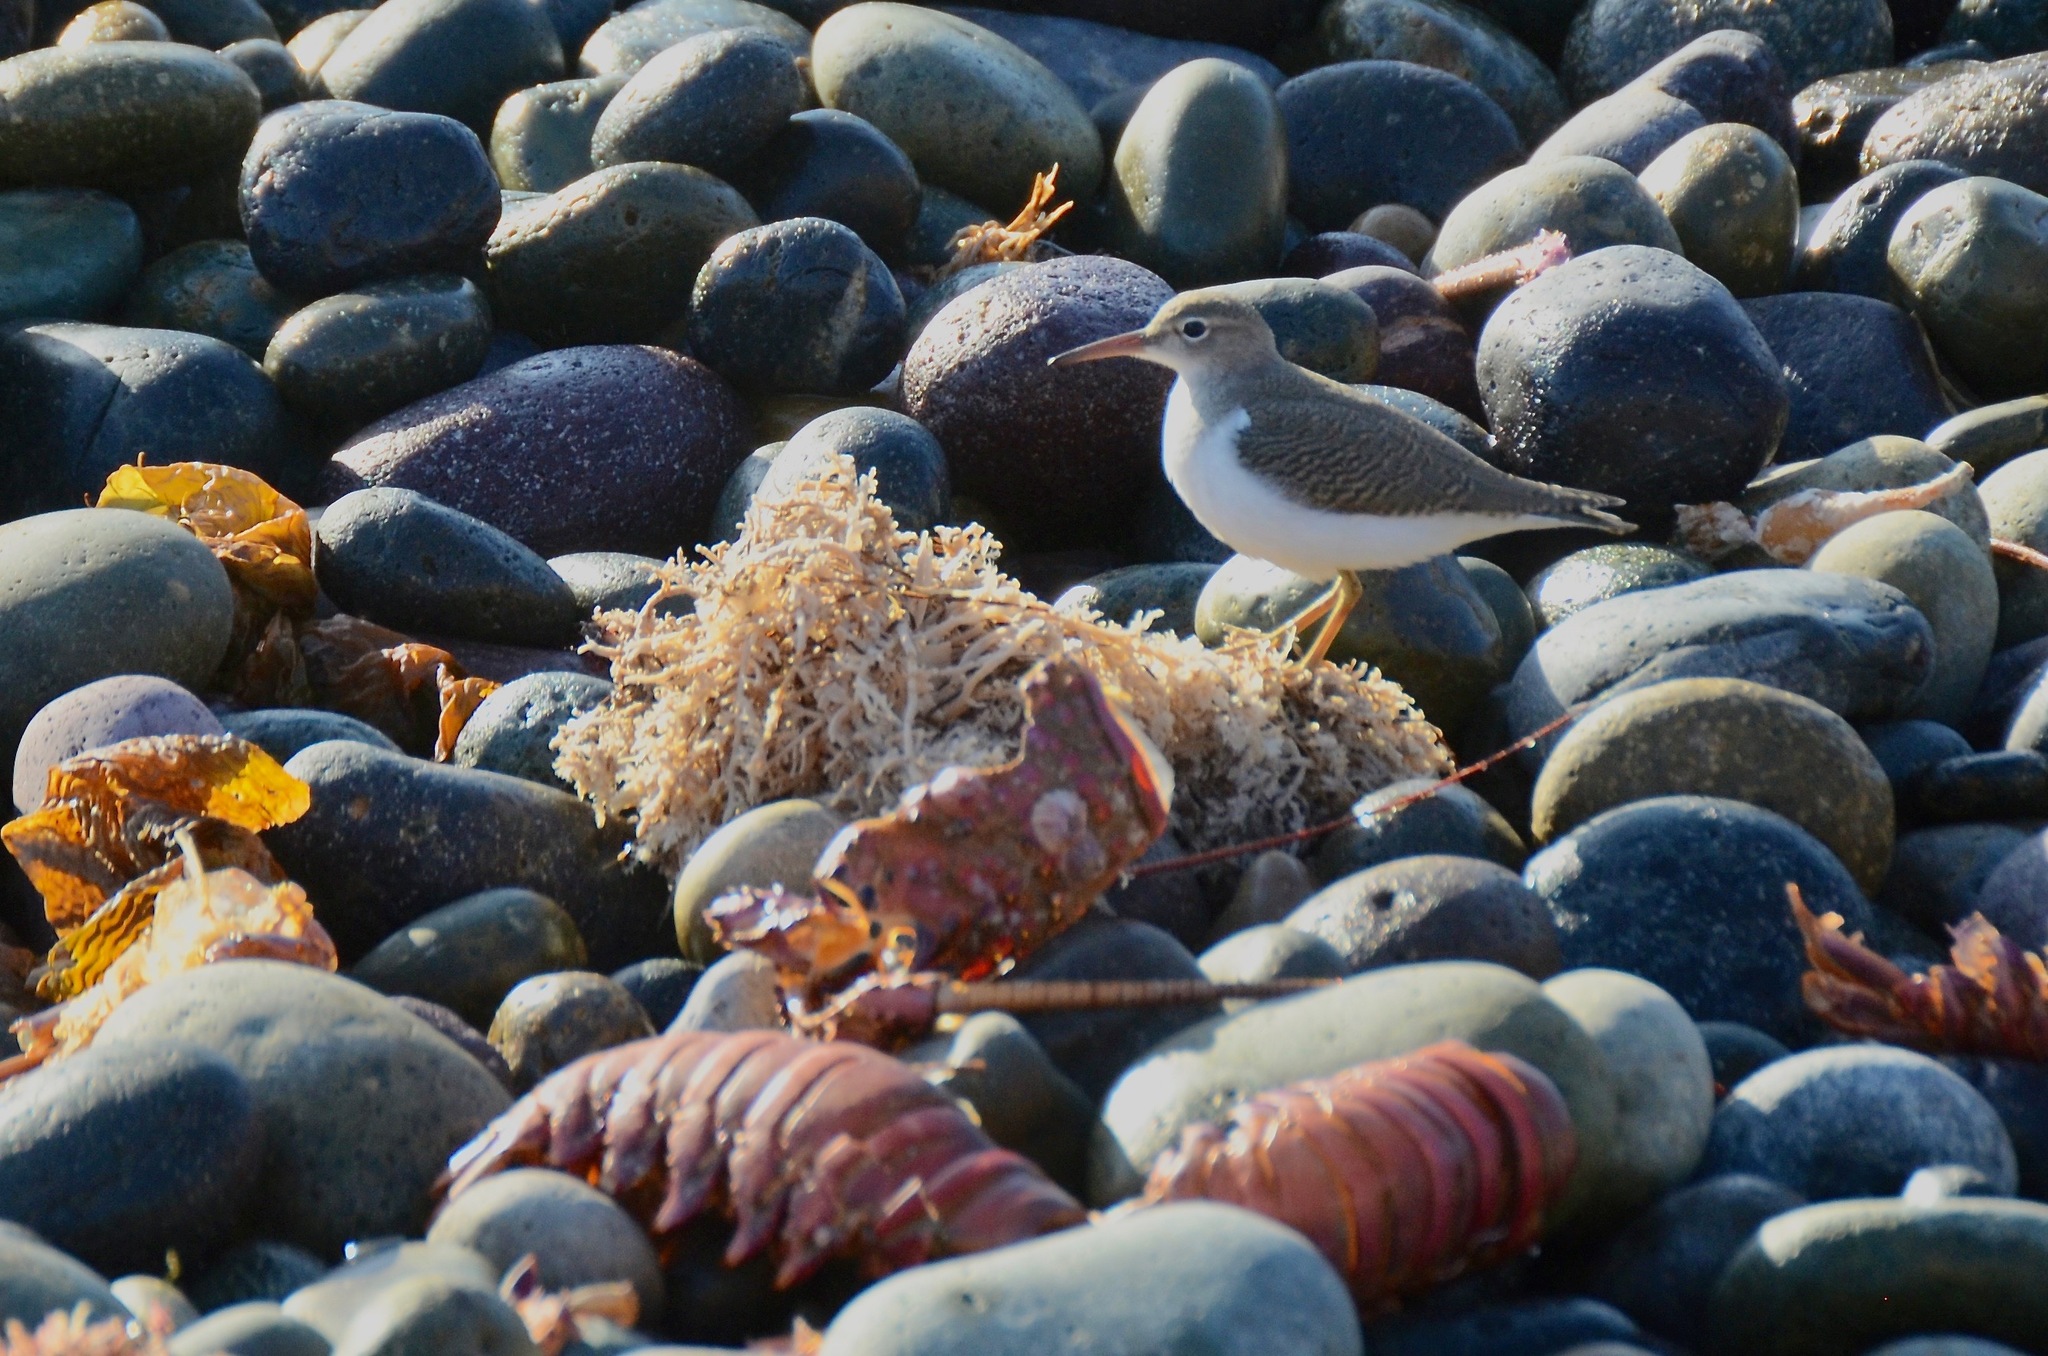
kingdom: Animalia
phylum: Chordata
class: Aves
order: Charadriiformes
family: Scolopacidae
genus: Actitis
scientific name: Actitis macularius
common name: Spotted sandpiper
